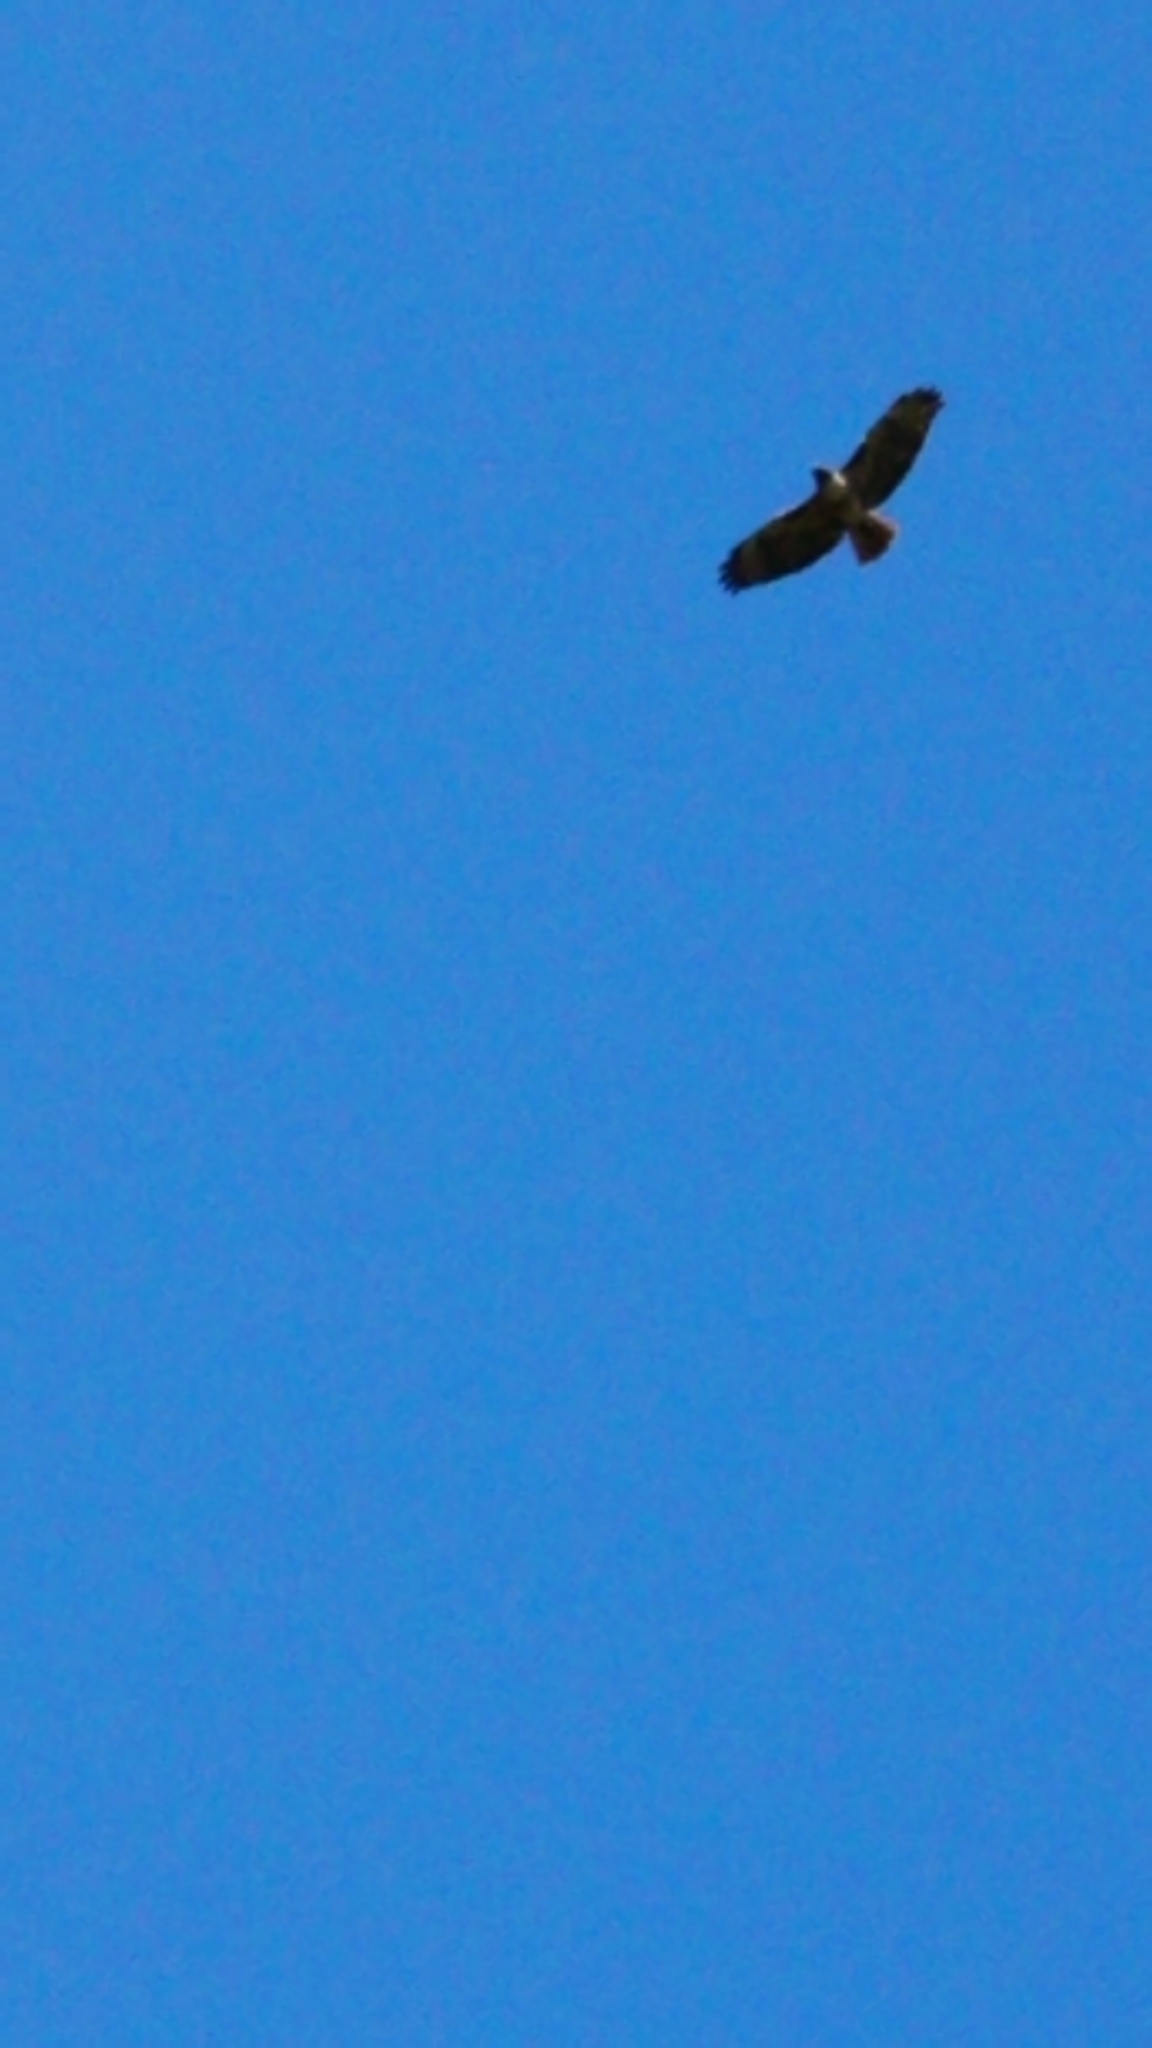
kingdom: Animalia
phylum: Chordata
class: Aves
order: Accipitriformes
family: Accipitridae
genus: Buteo
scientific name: Buteo jamaicensis
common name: Red-tailed hawk
